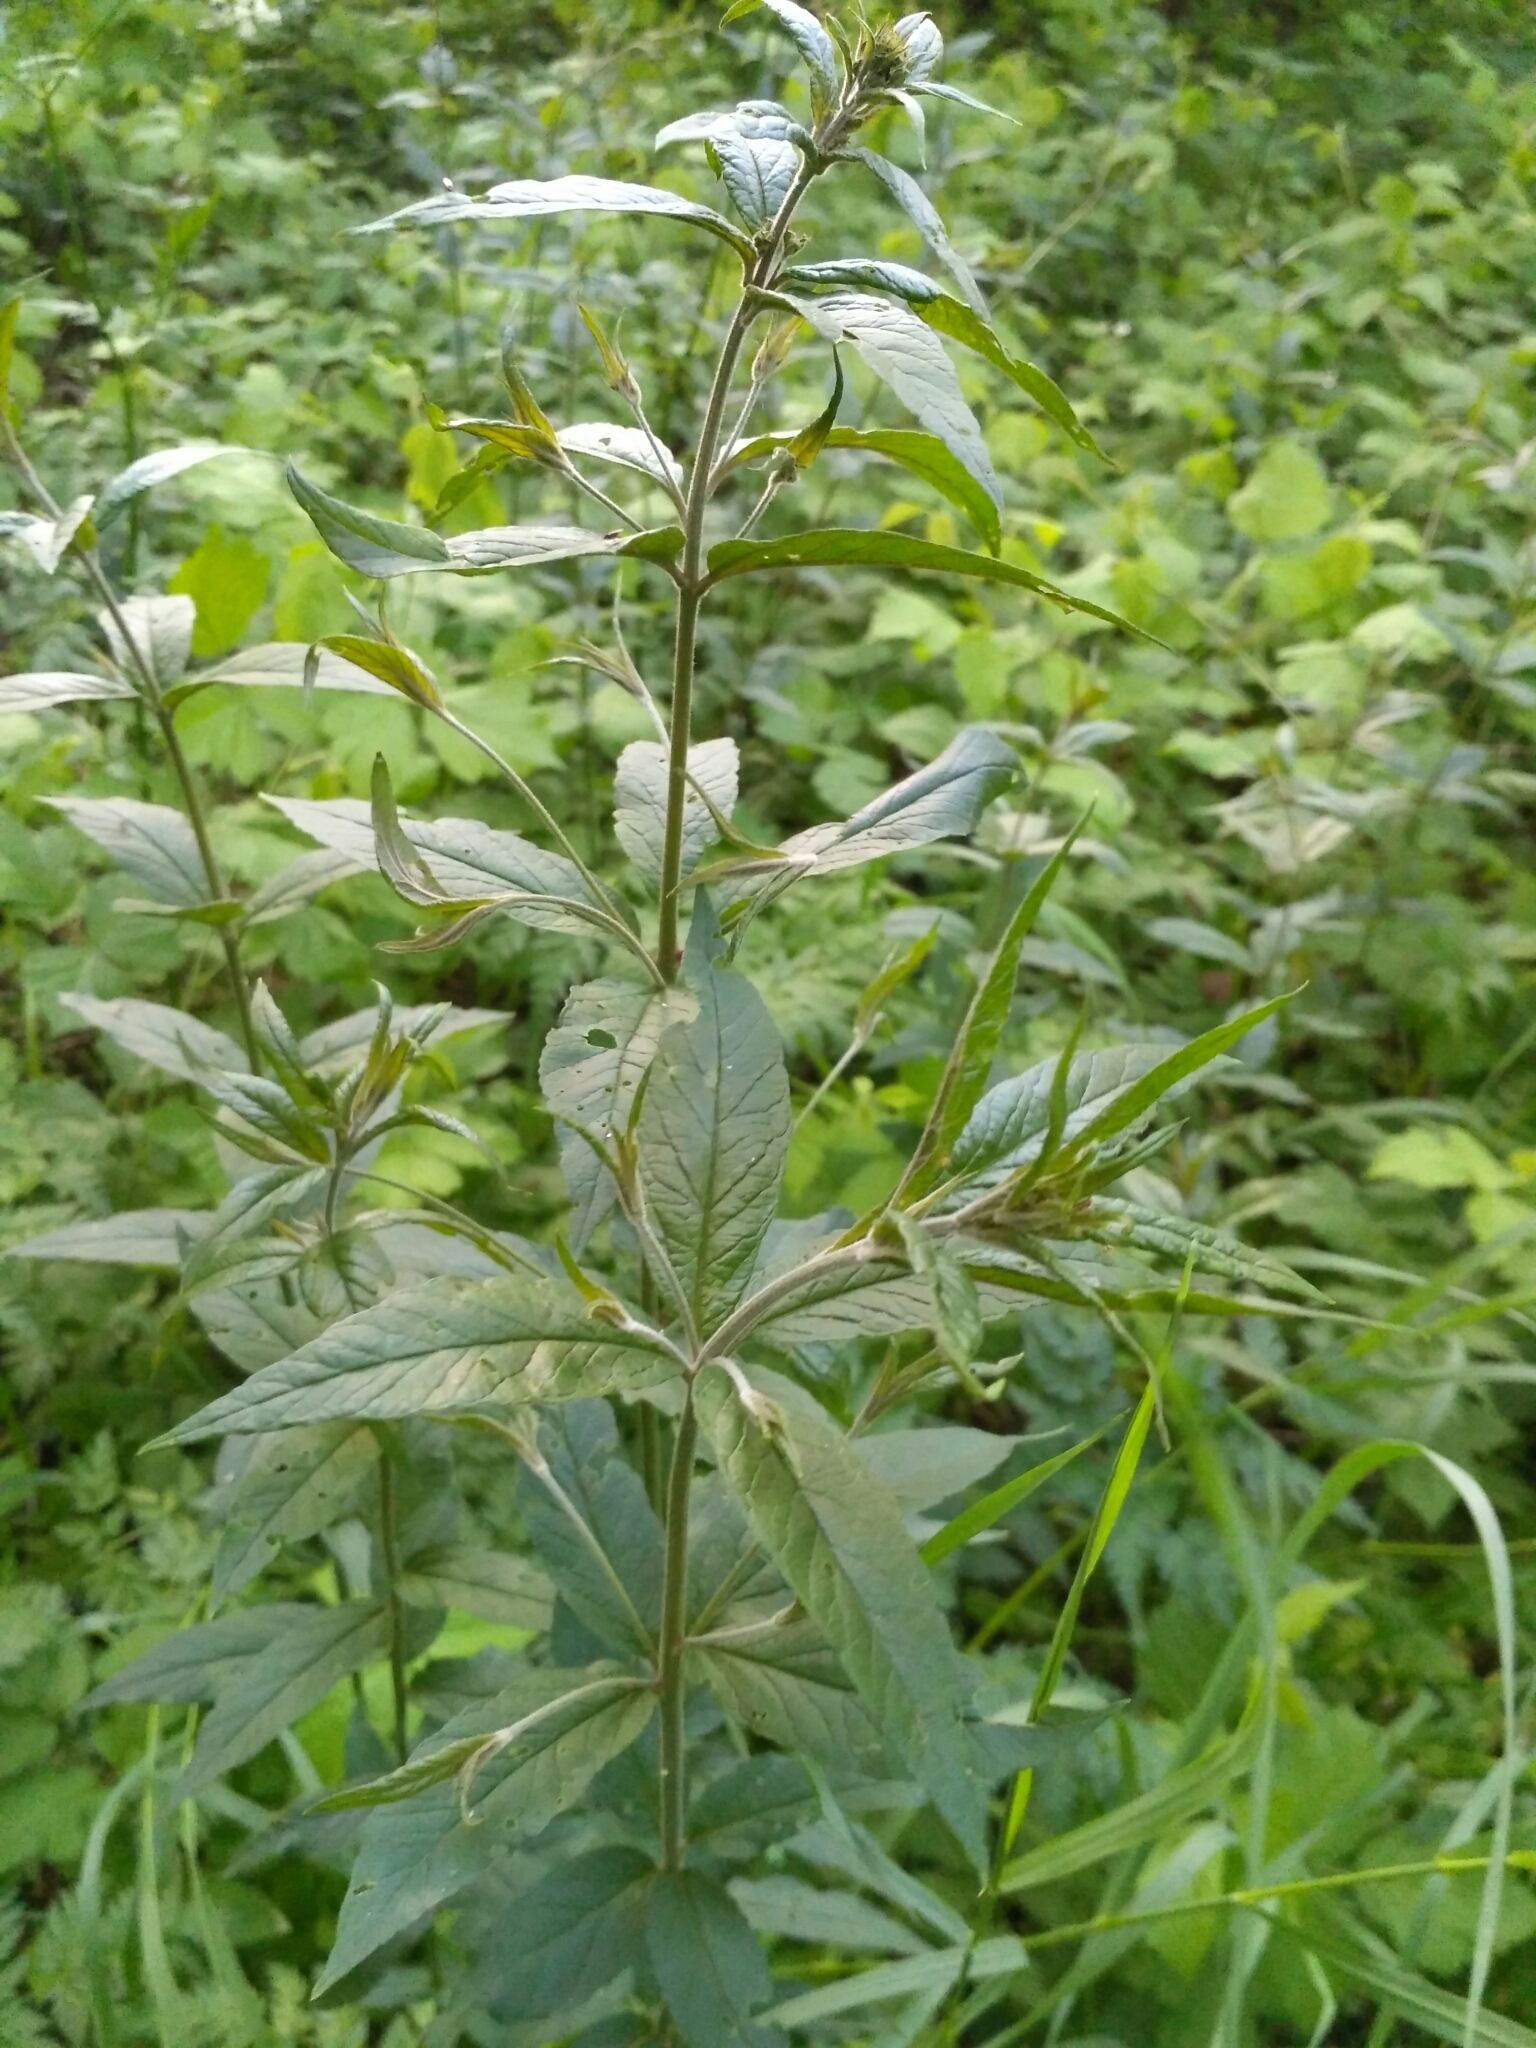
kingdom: Plantae
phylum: Tracheophyta
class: Magnoliopsida
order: Ericales
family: Primulaceae
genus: Lysimachia
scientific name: Lysimachia vulgaris
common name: Yellow loosestrife
